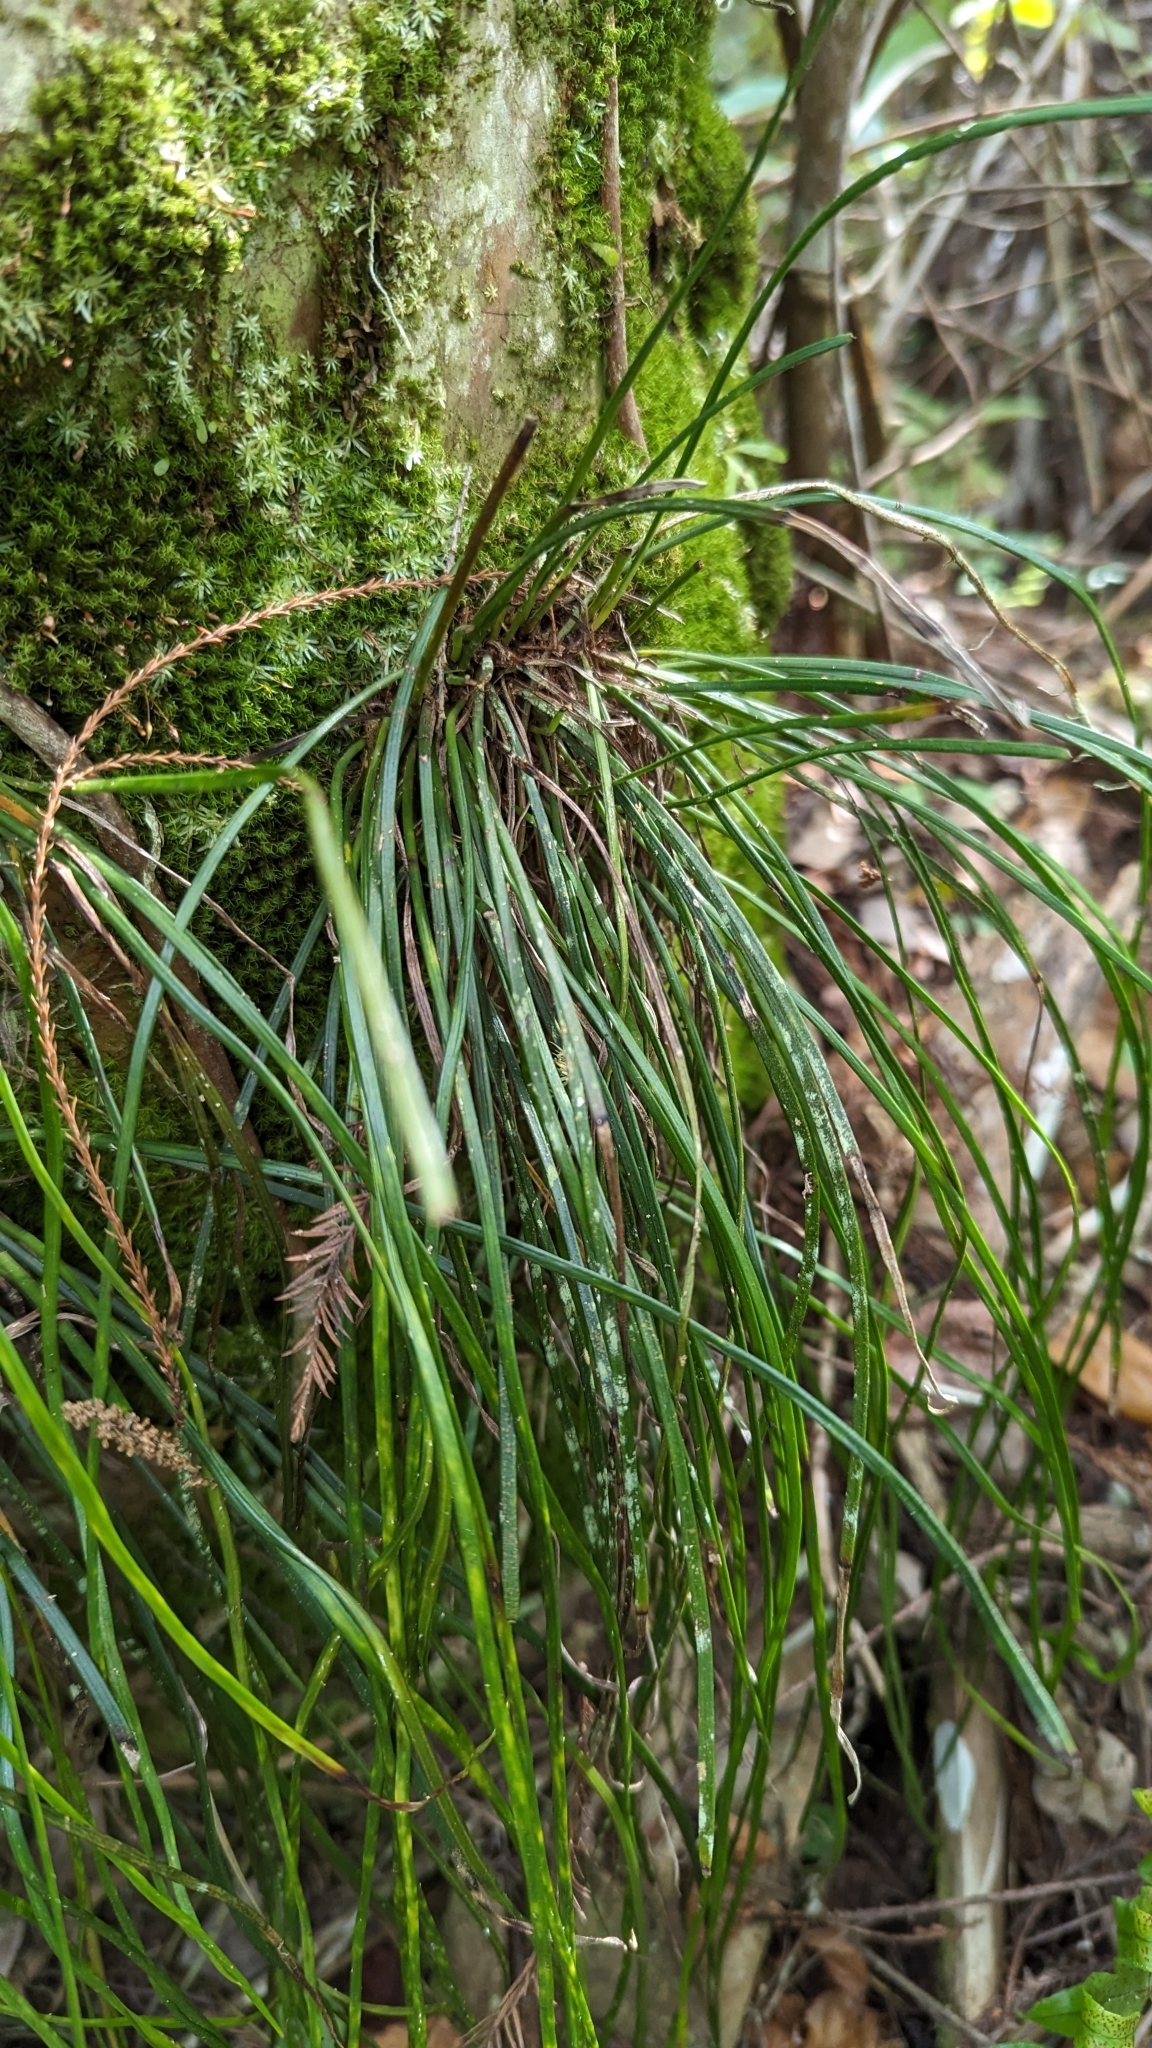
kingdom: Plantae
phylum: Tracheophyta
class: Polypodiopsida
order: Polypodiales
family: Pteridaceae
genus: Vittaria
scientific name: Vittaria lineata
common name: Shoestring fern
